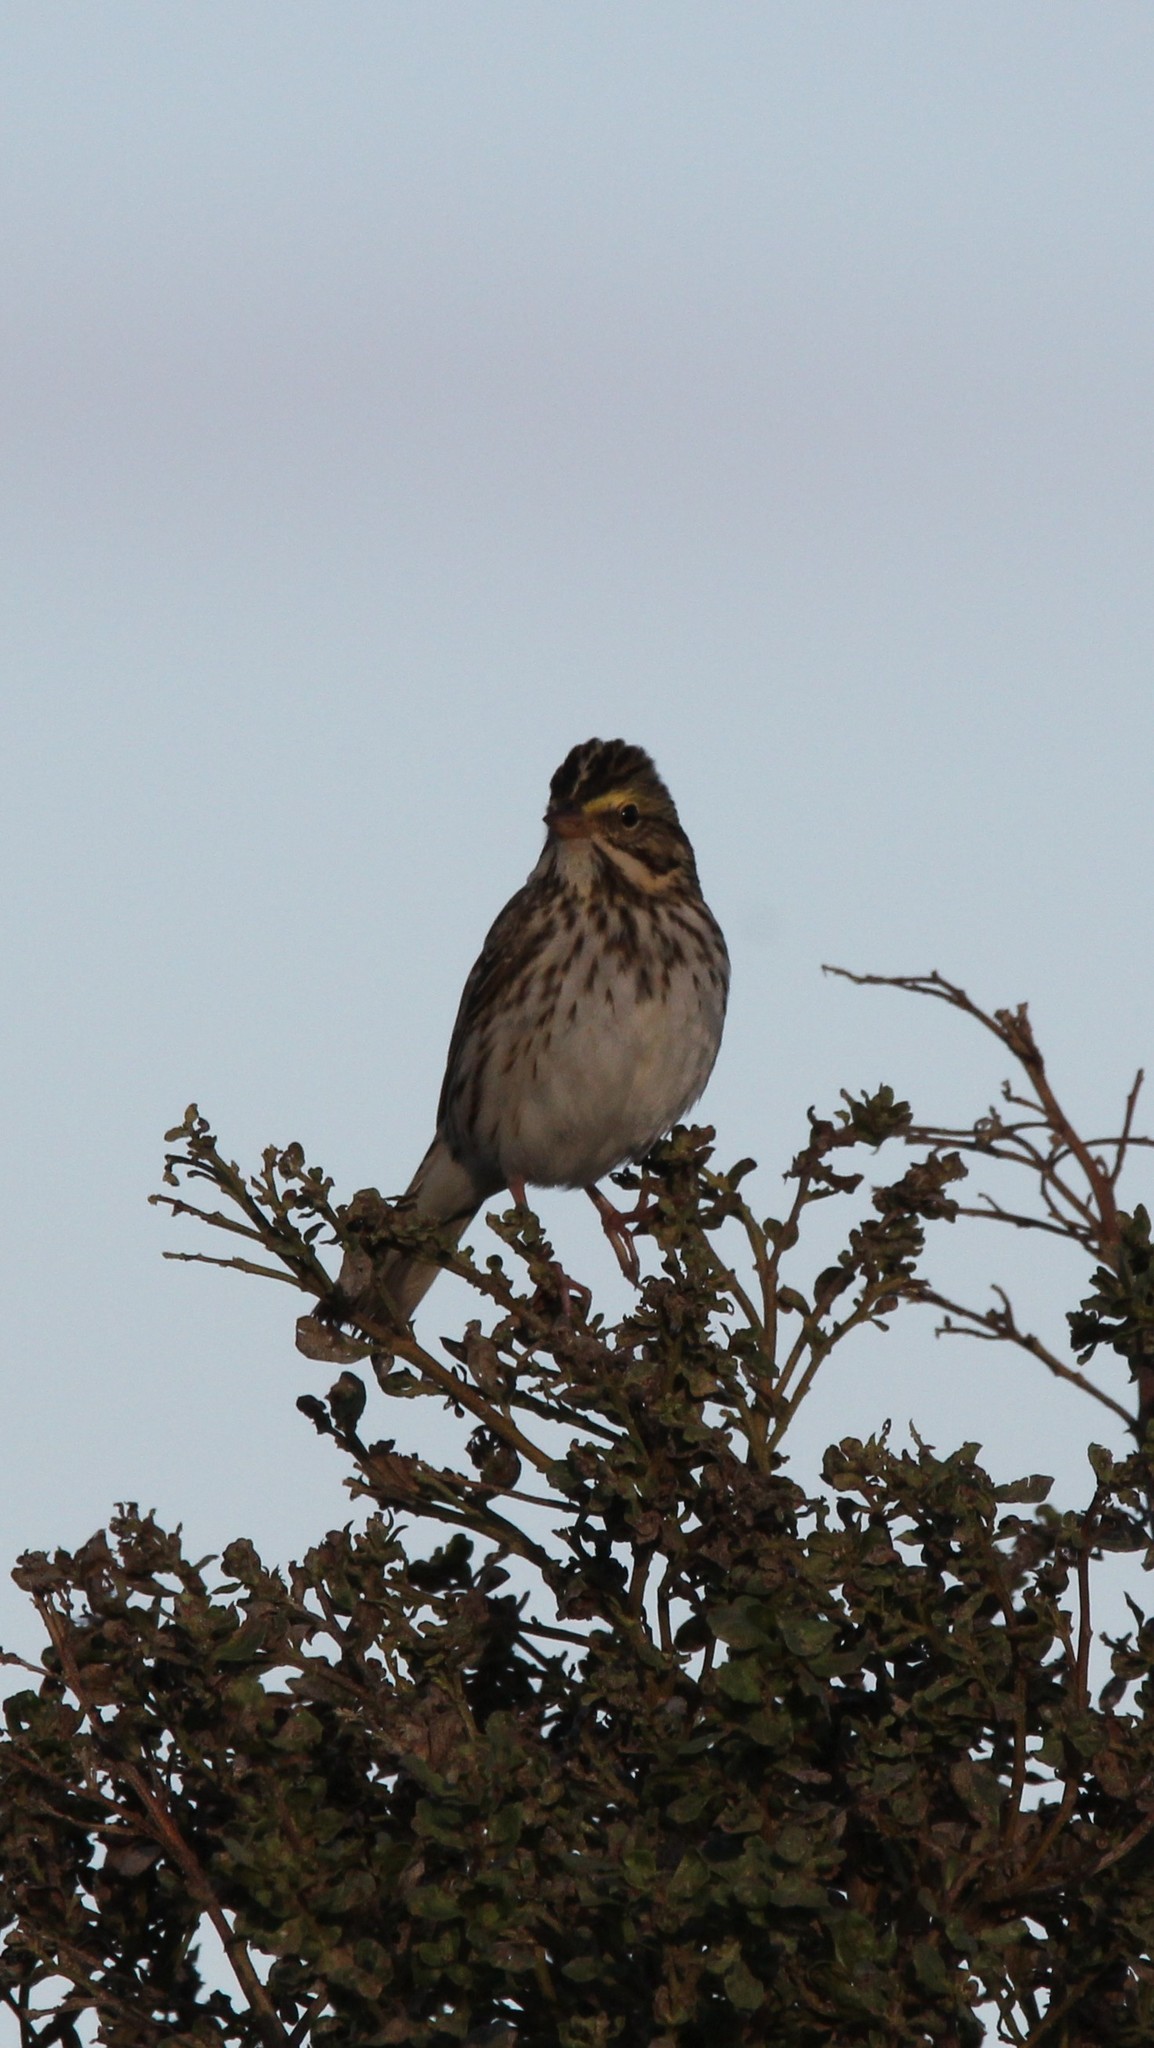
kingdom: Animalia
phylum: Chordata
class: Aves
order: Passeriformes
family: Passerellidae
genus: Passerculus
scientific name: Passerculus sandwichensis
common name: Savannah sparrow
